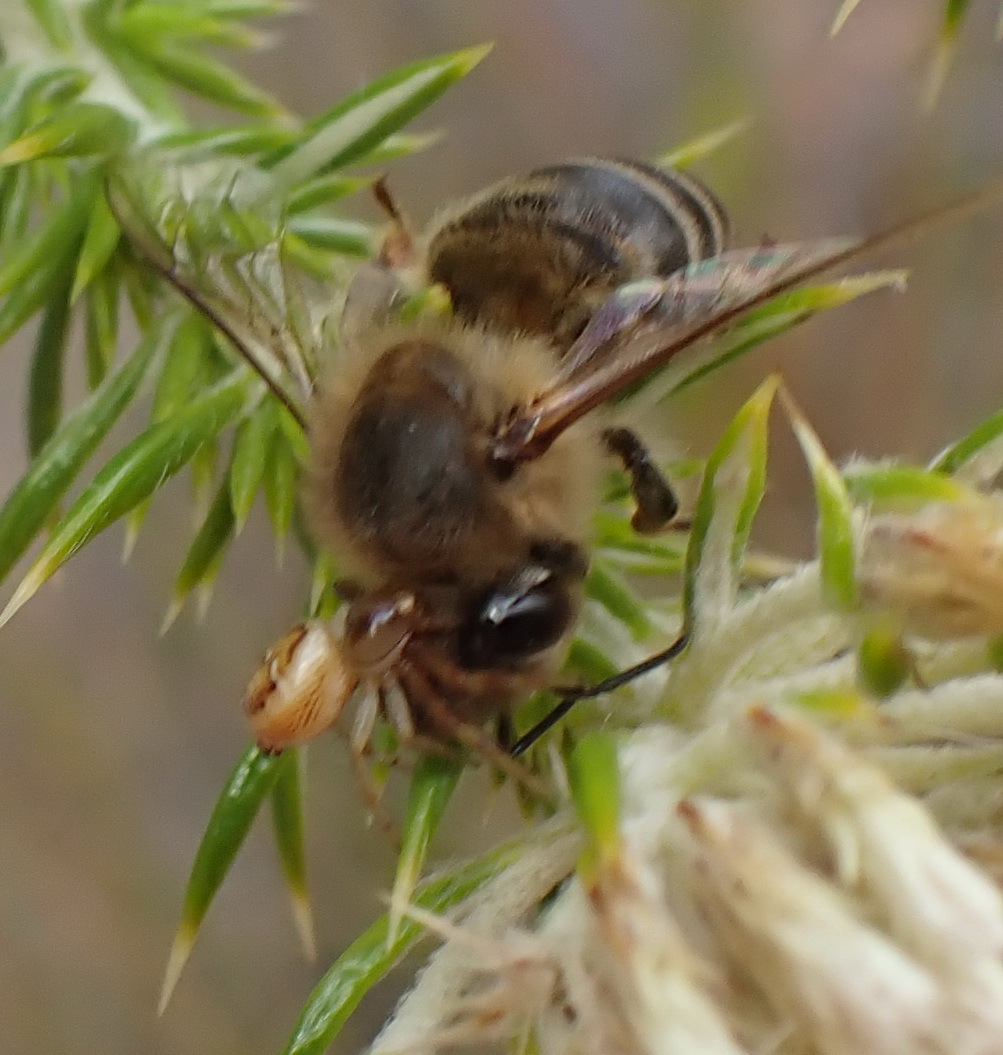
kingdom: Animalia
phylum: Arthropoda
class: Insecta
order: Hymenoptera
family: Apidae
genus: Apis
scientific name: Apis mellifera
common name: Honey bee
